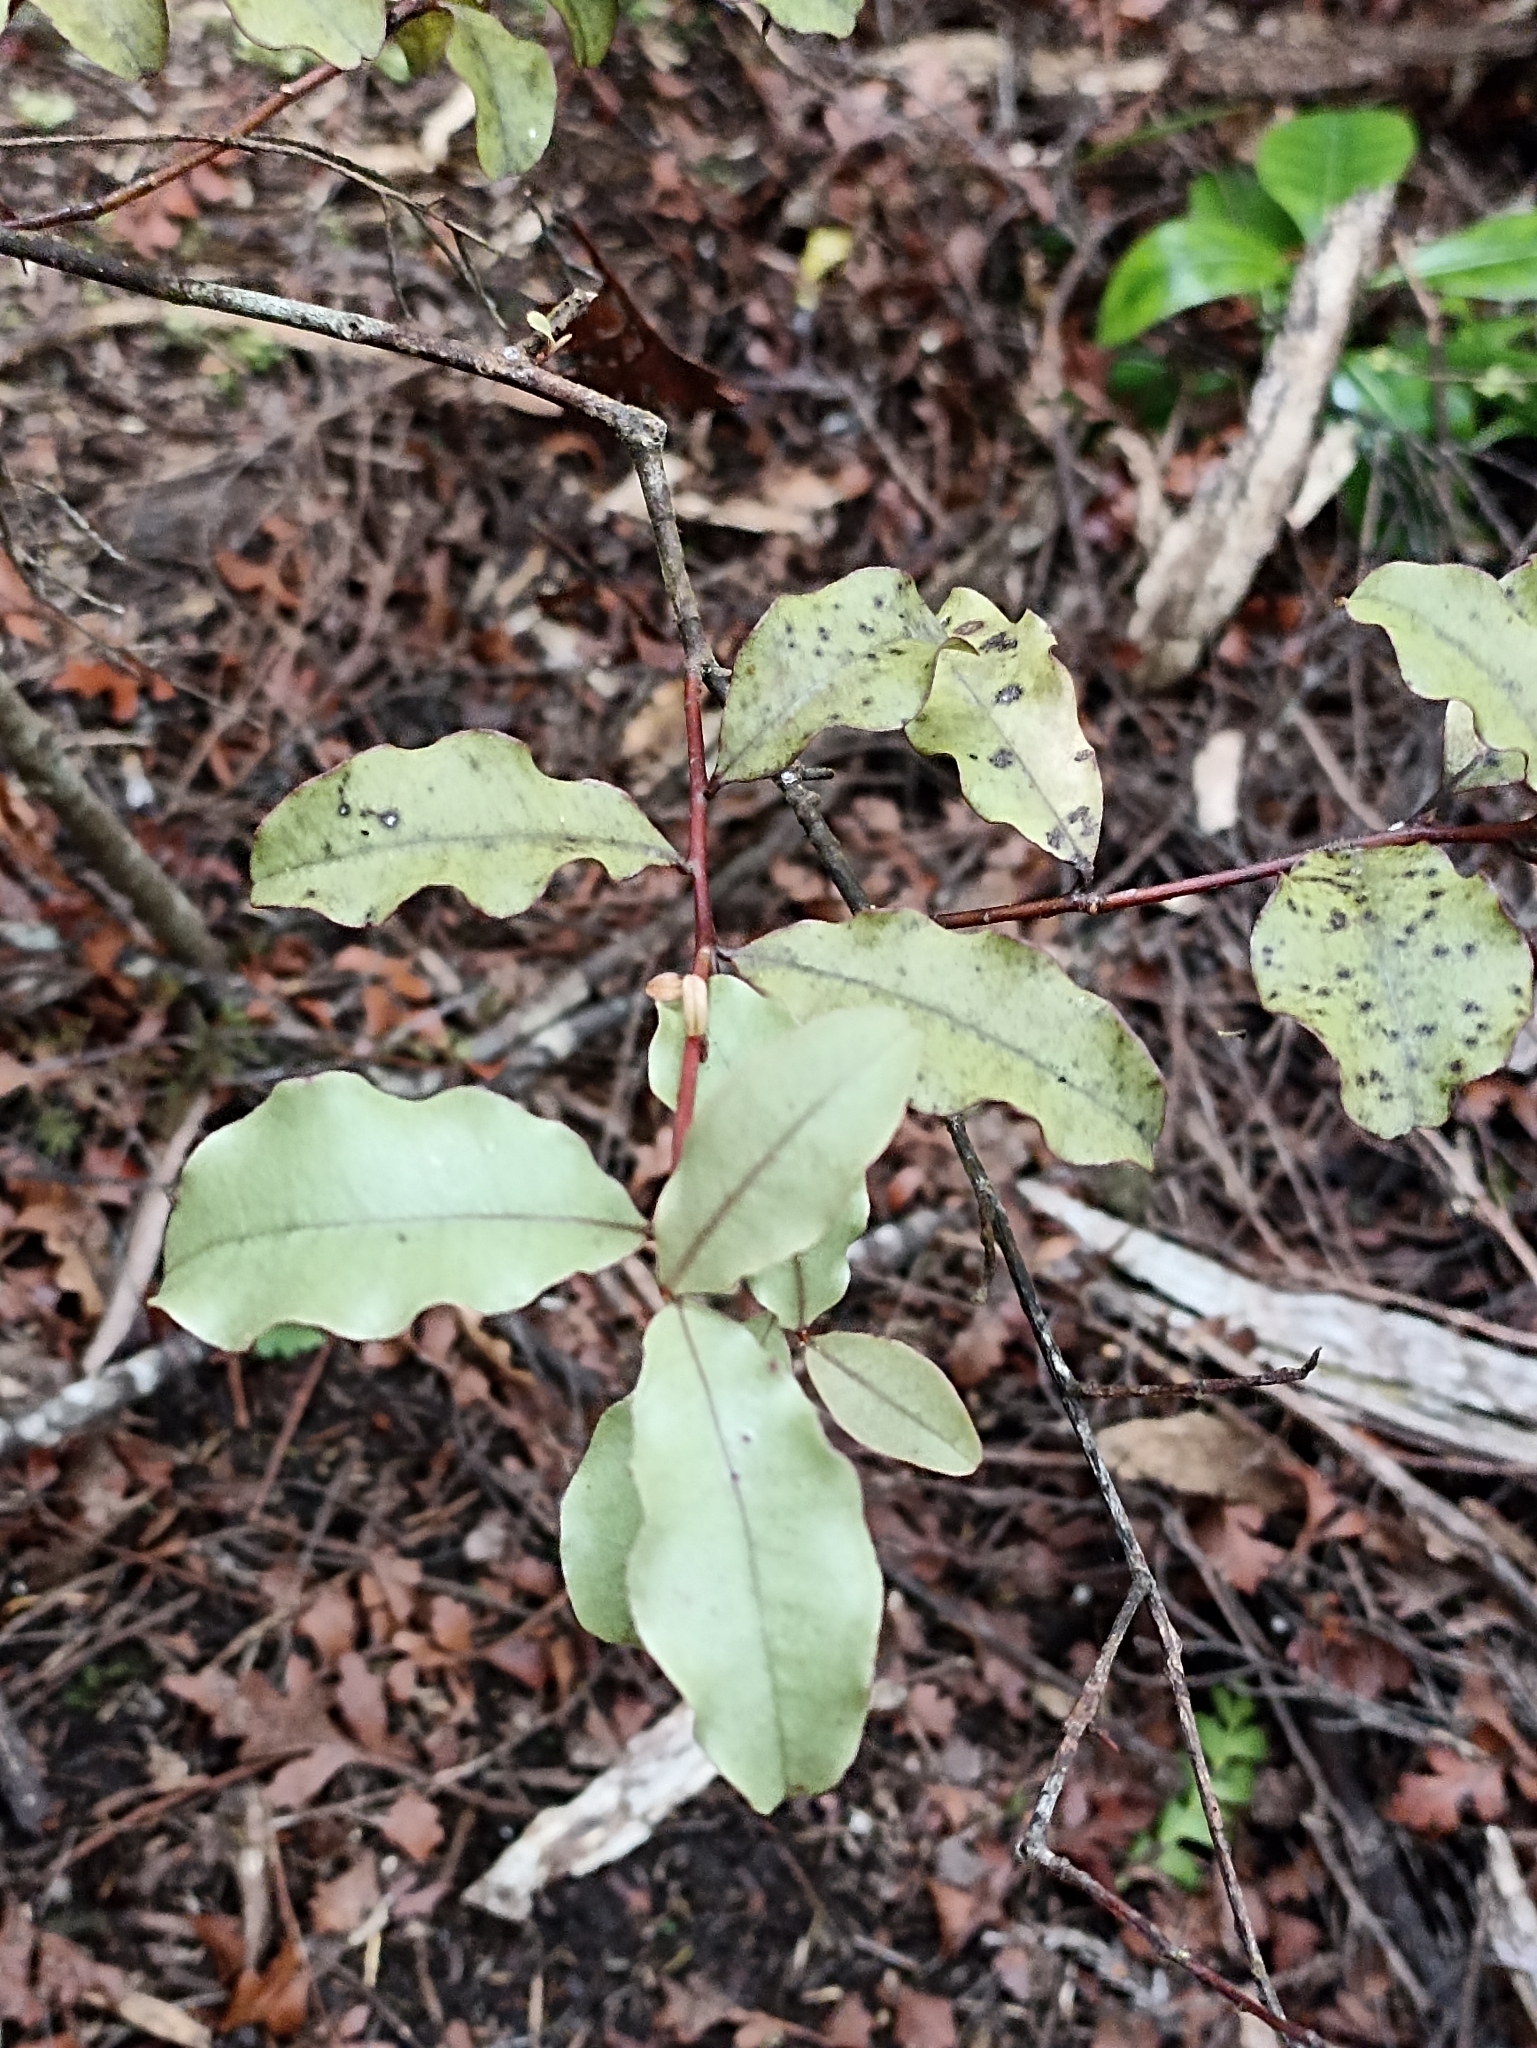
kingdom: Plantae
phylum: Tracheophyta
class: Magnoliopsida
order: Ericales
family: Primulaceae
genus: Myrsine
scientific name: Myrsine australis
